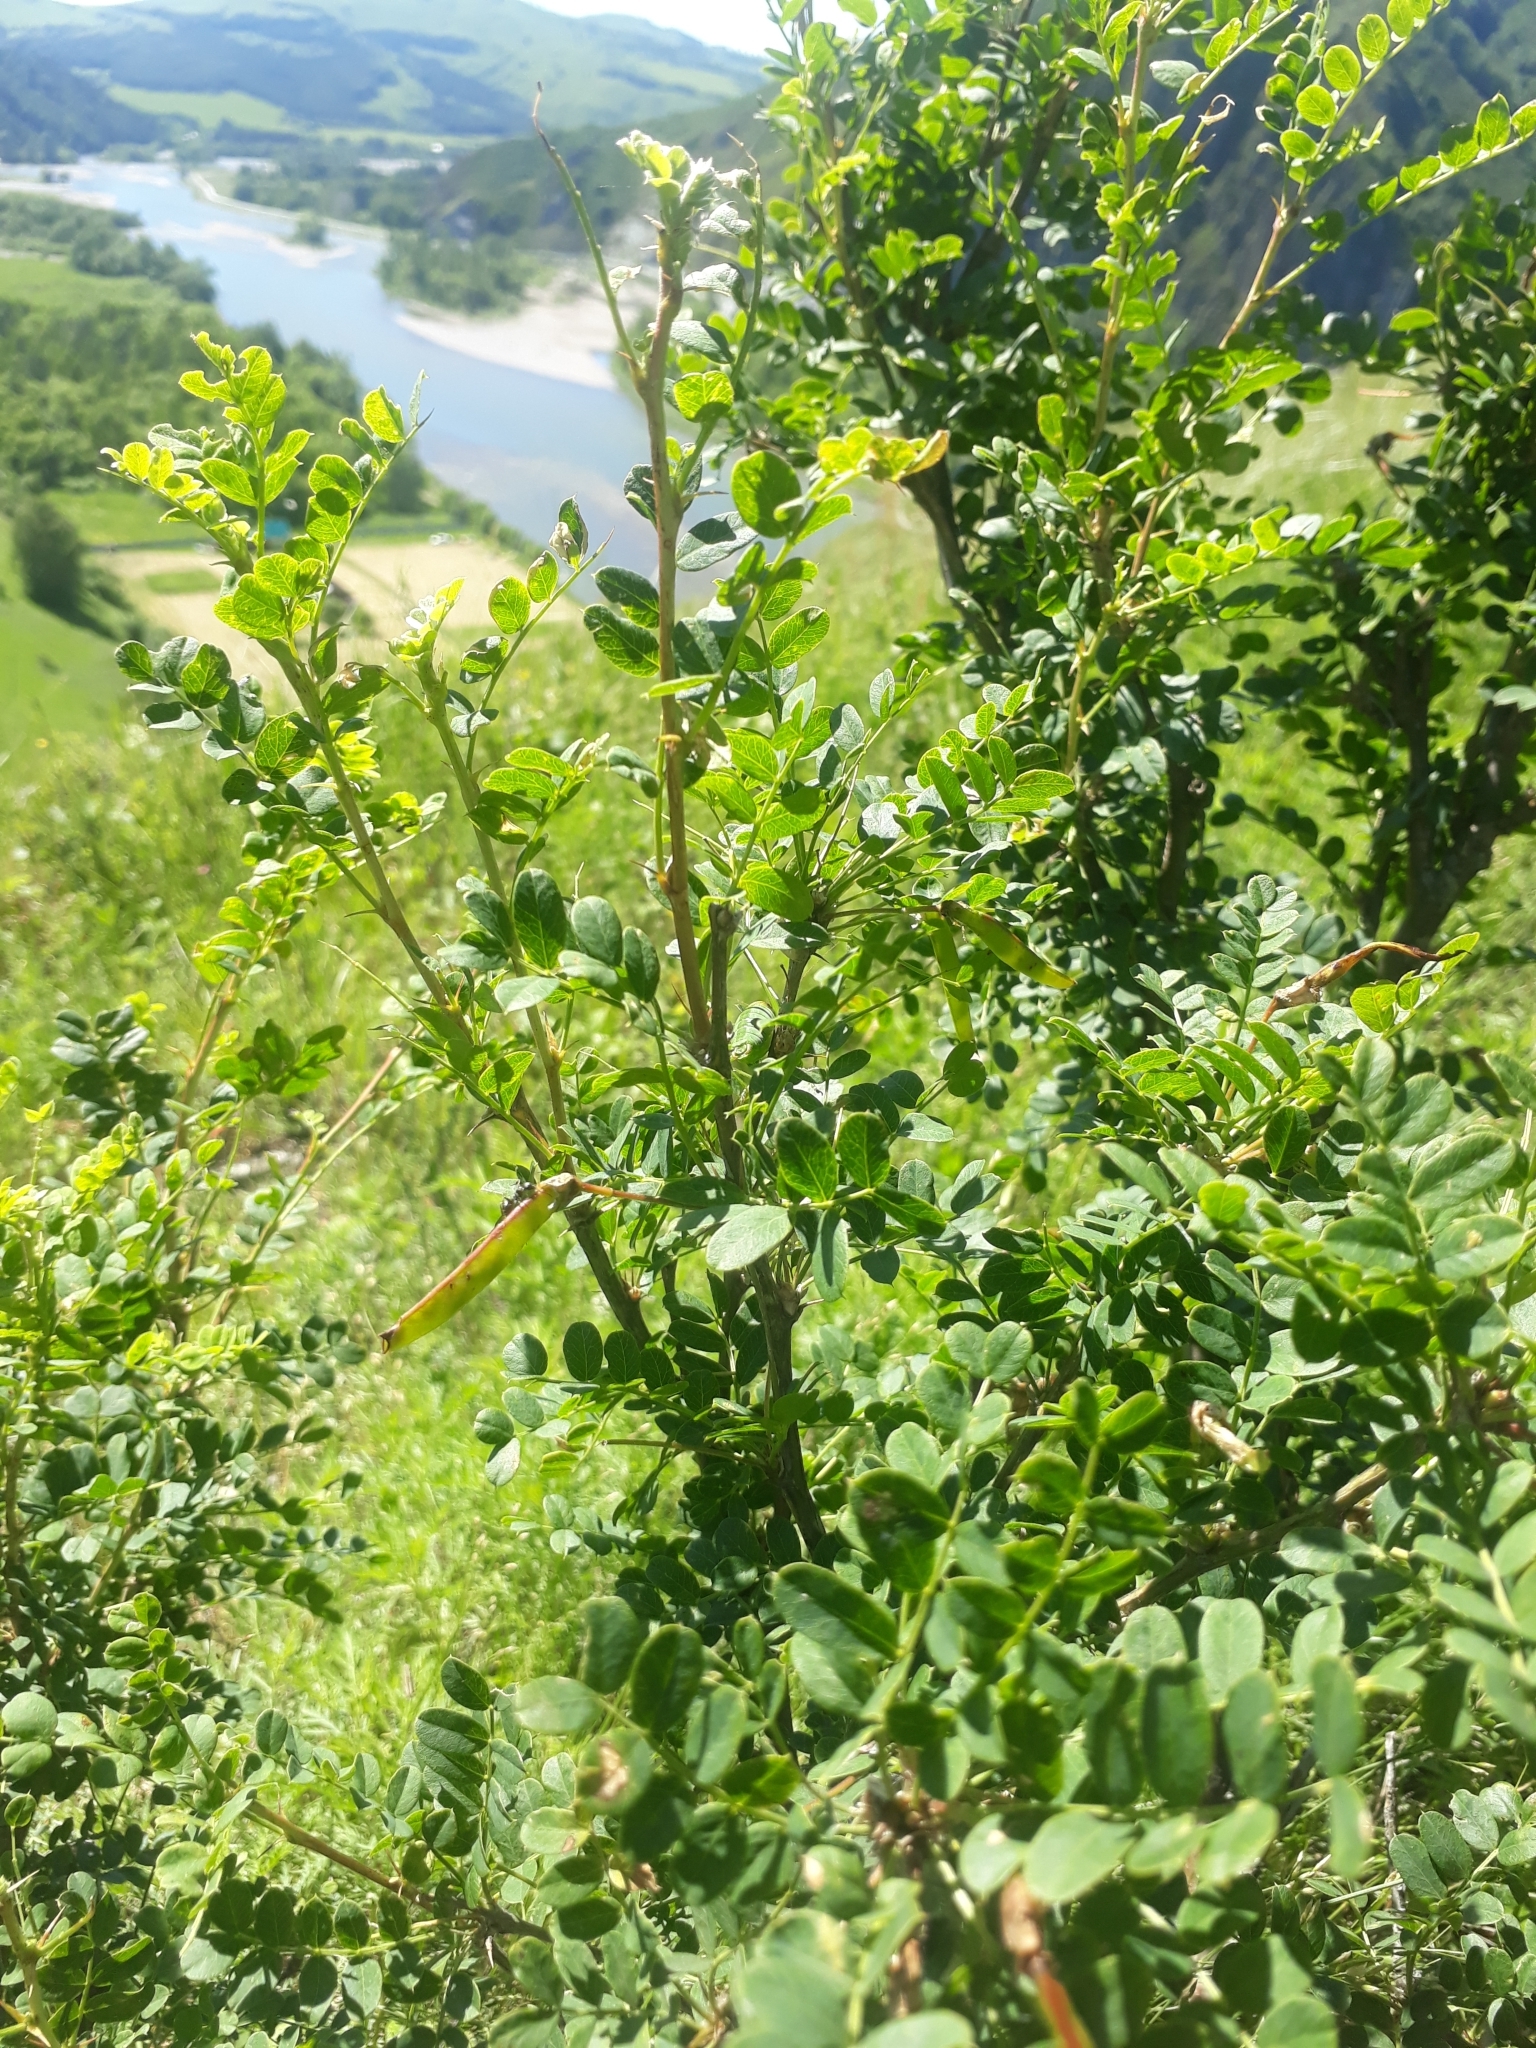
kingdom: Plantae
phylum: Tracheophyta
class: Magnoliopsida
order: Fabales
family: Fabaceae
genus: Caragana
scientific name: Caragana arborescens
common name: Siberian peashrub
